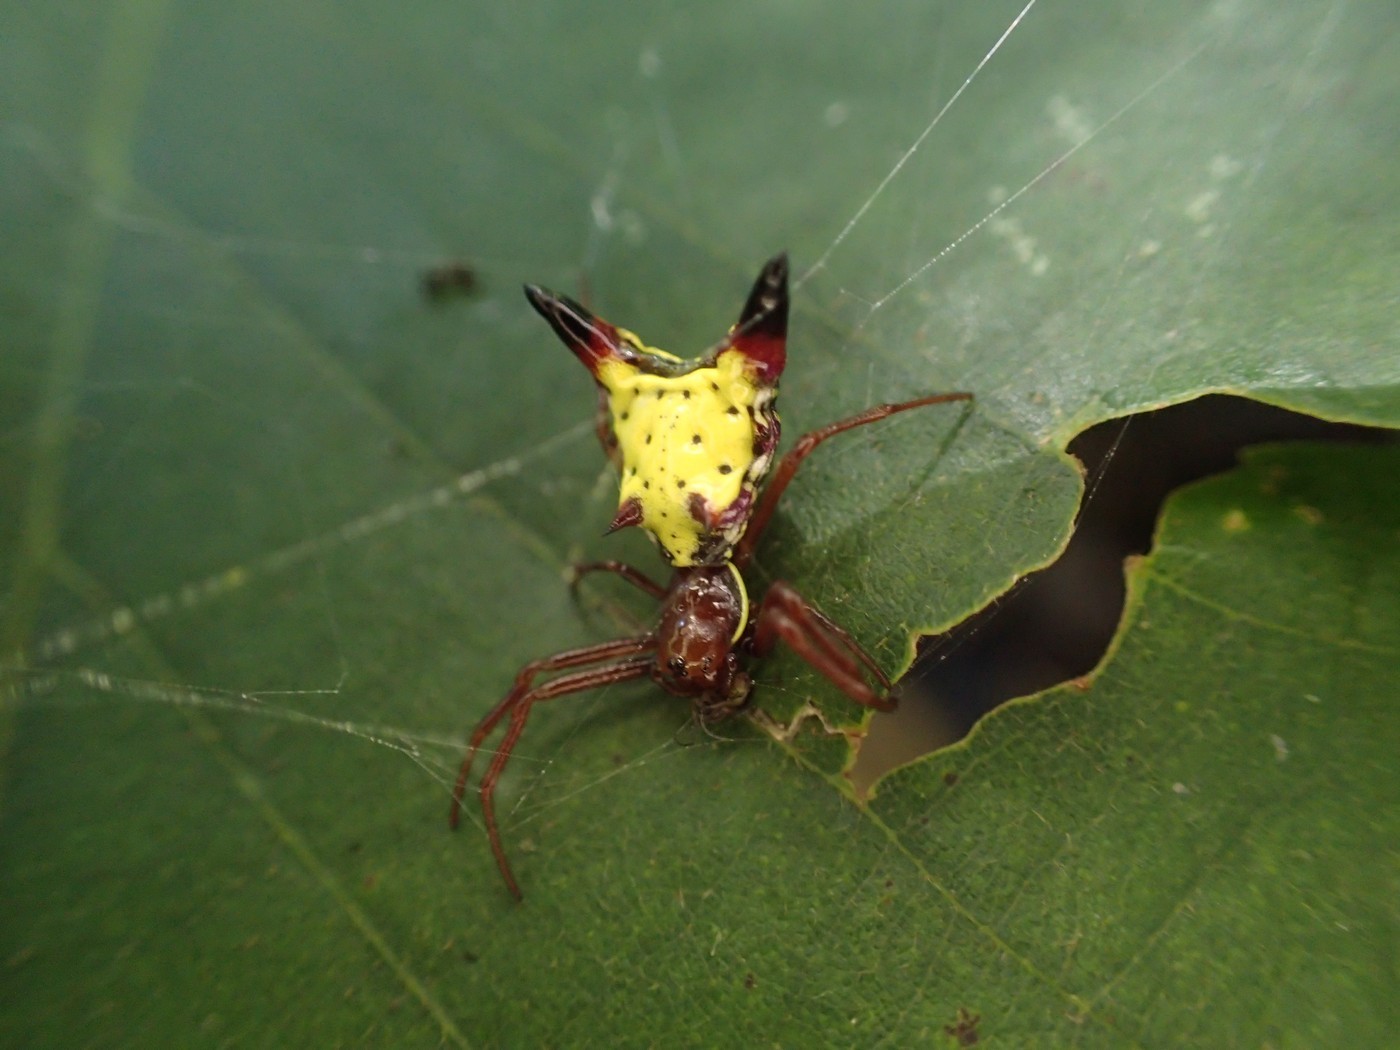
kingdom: Animalia
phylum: Arthropoda
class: Arachnida
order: Araneae
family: Araneidae
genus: Micrathena
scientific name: Micrathena sagittata
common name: Orb weavers
